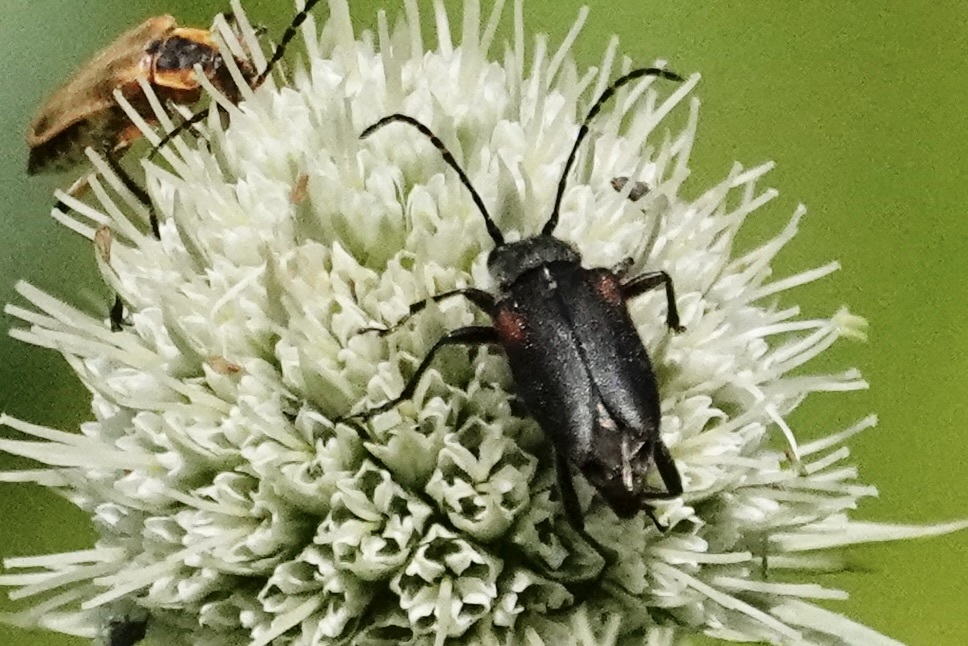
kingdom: Animalia
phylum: Arthropoda
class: Insecta
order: Coleoptera
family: Cerambycidae
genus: Brachyleptura
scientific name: Brachyleptura vagans
